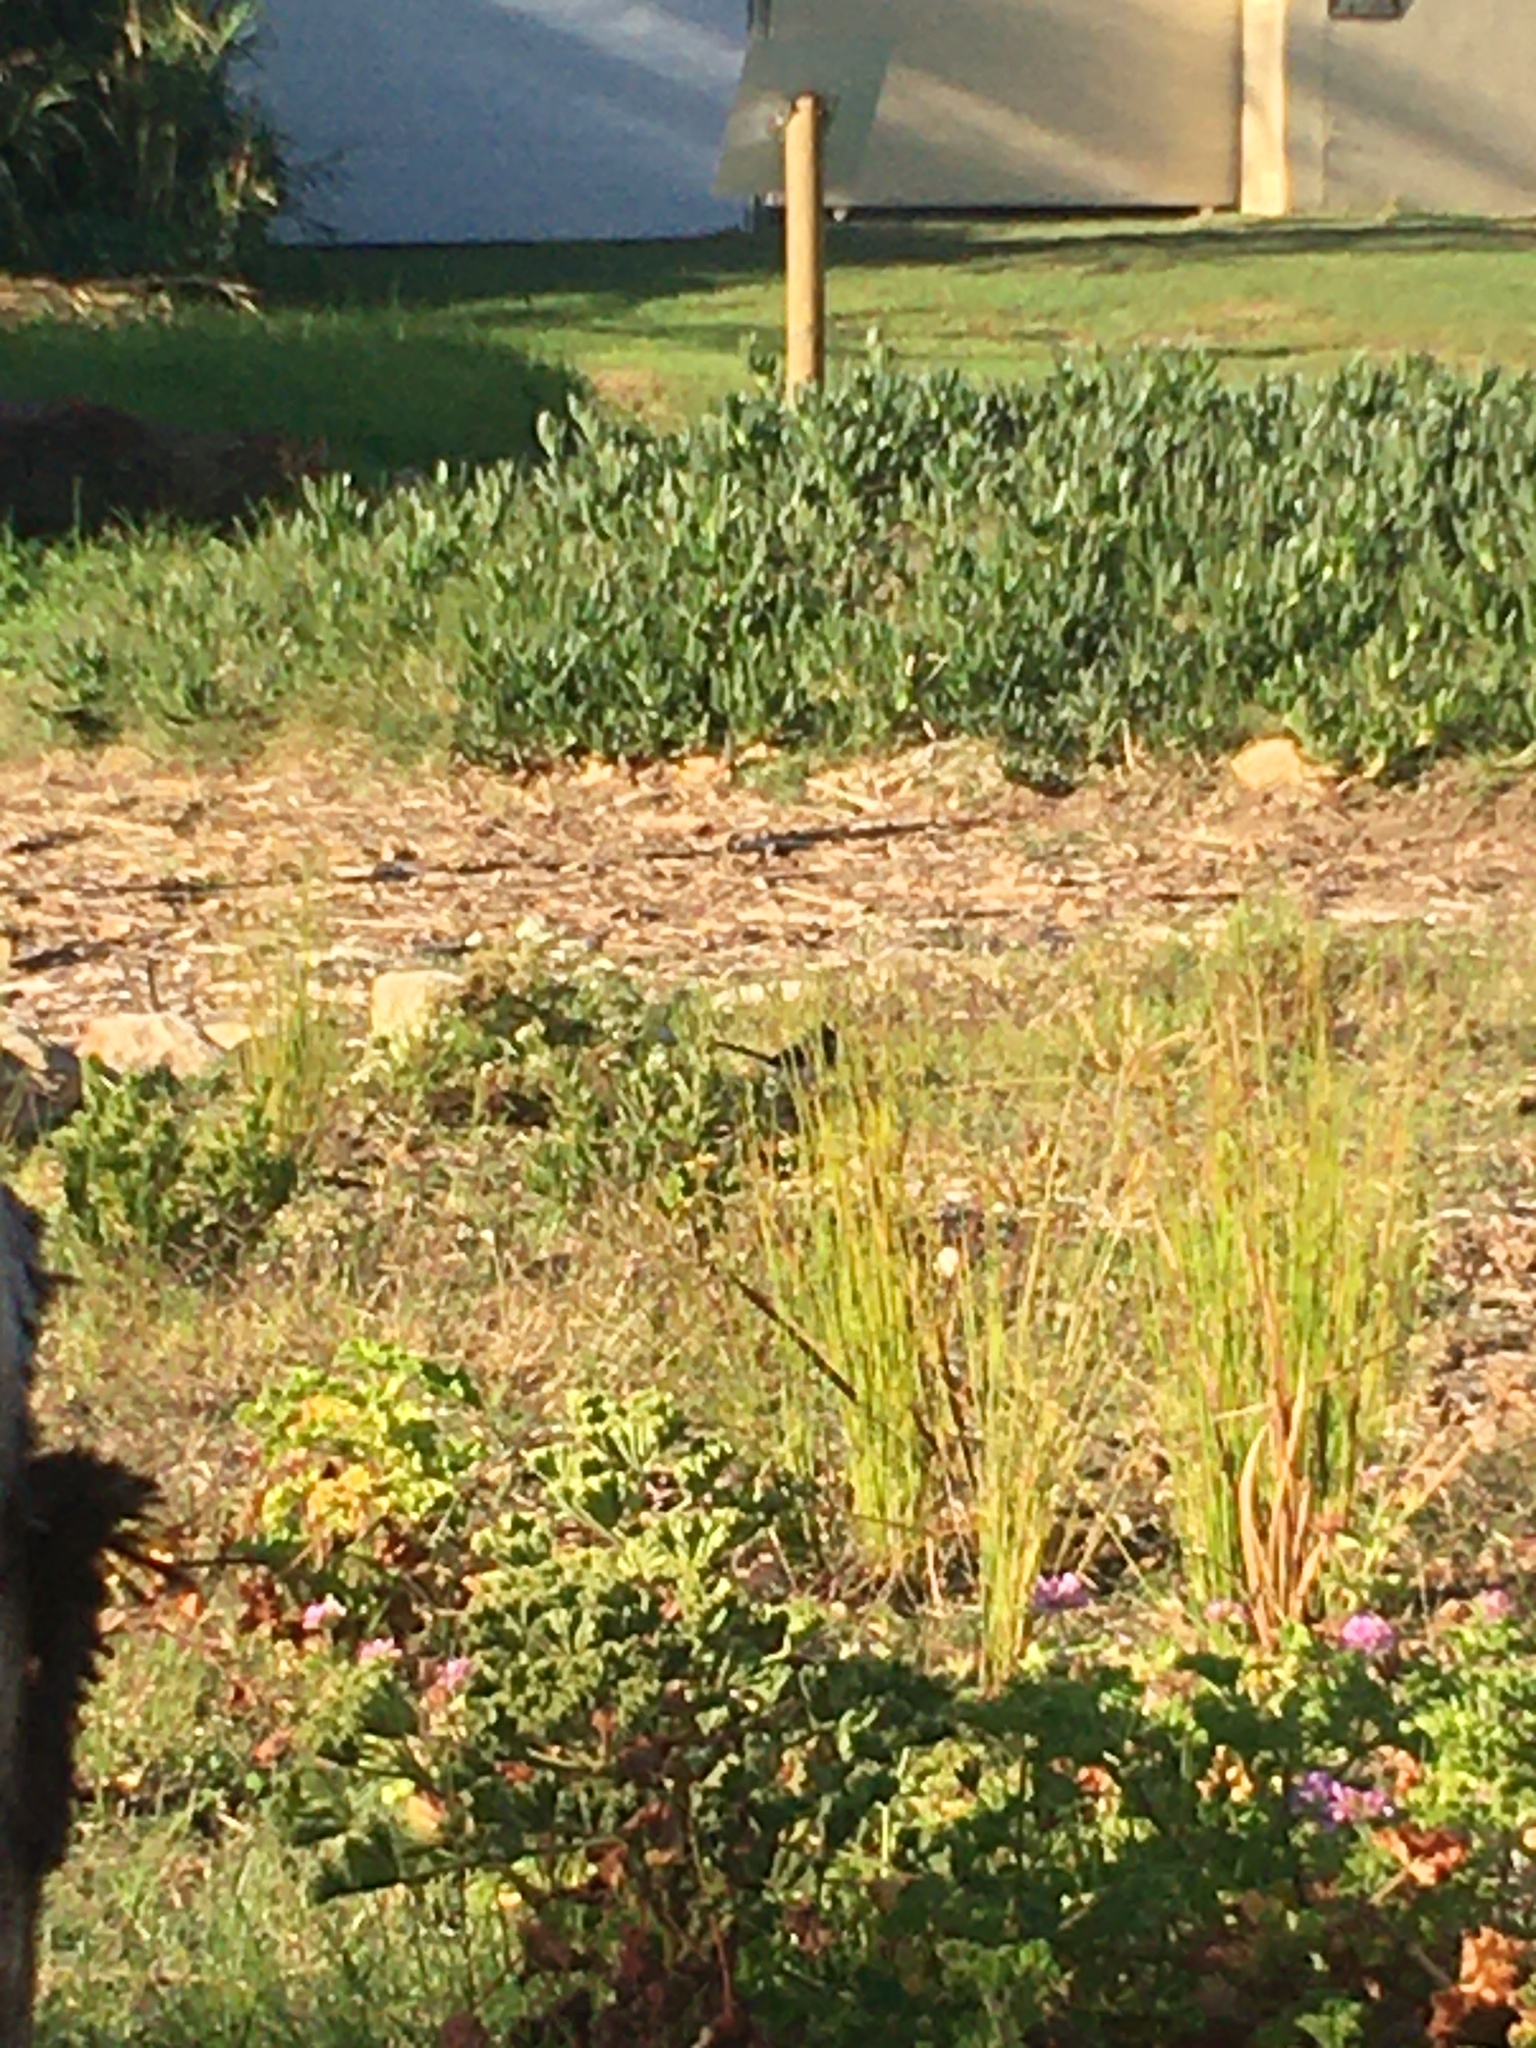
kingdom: Animalia
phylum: Chordata
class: Aves
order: Passeriformes
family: Laniidae
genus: Lanius
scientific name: Lanius collaris
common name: Southern fiscal
